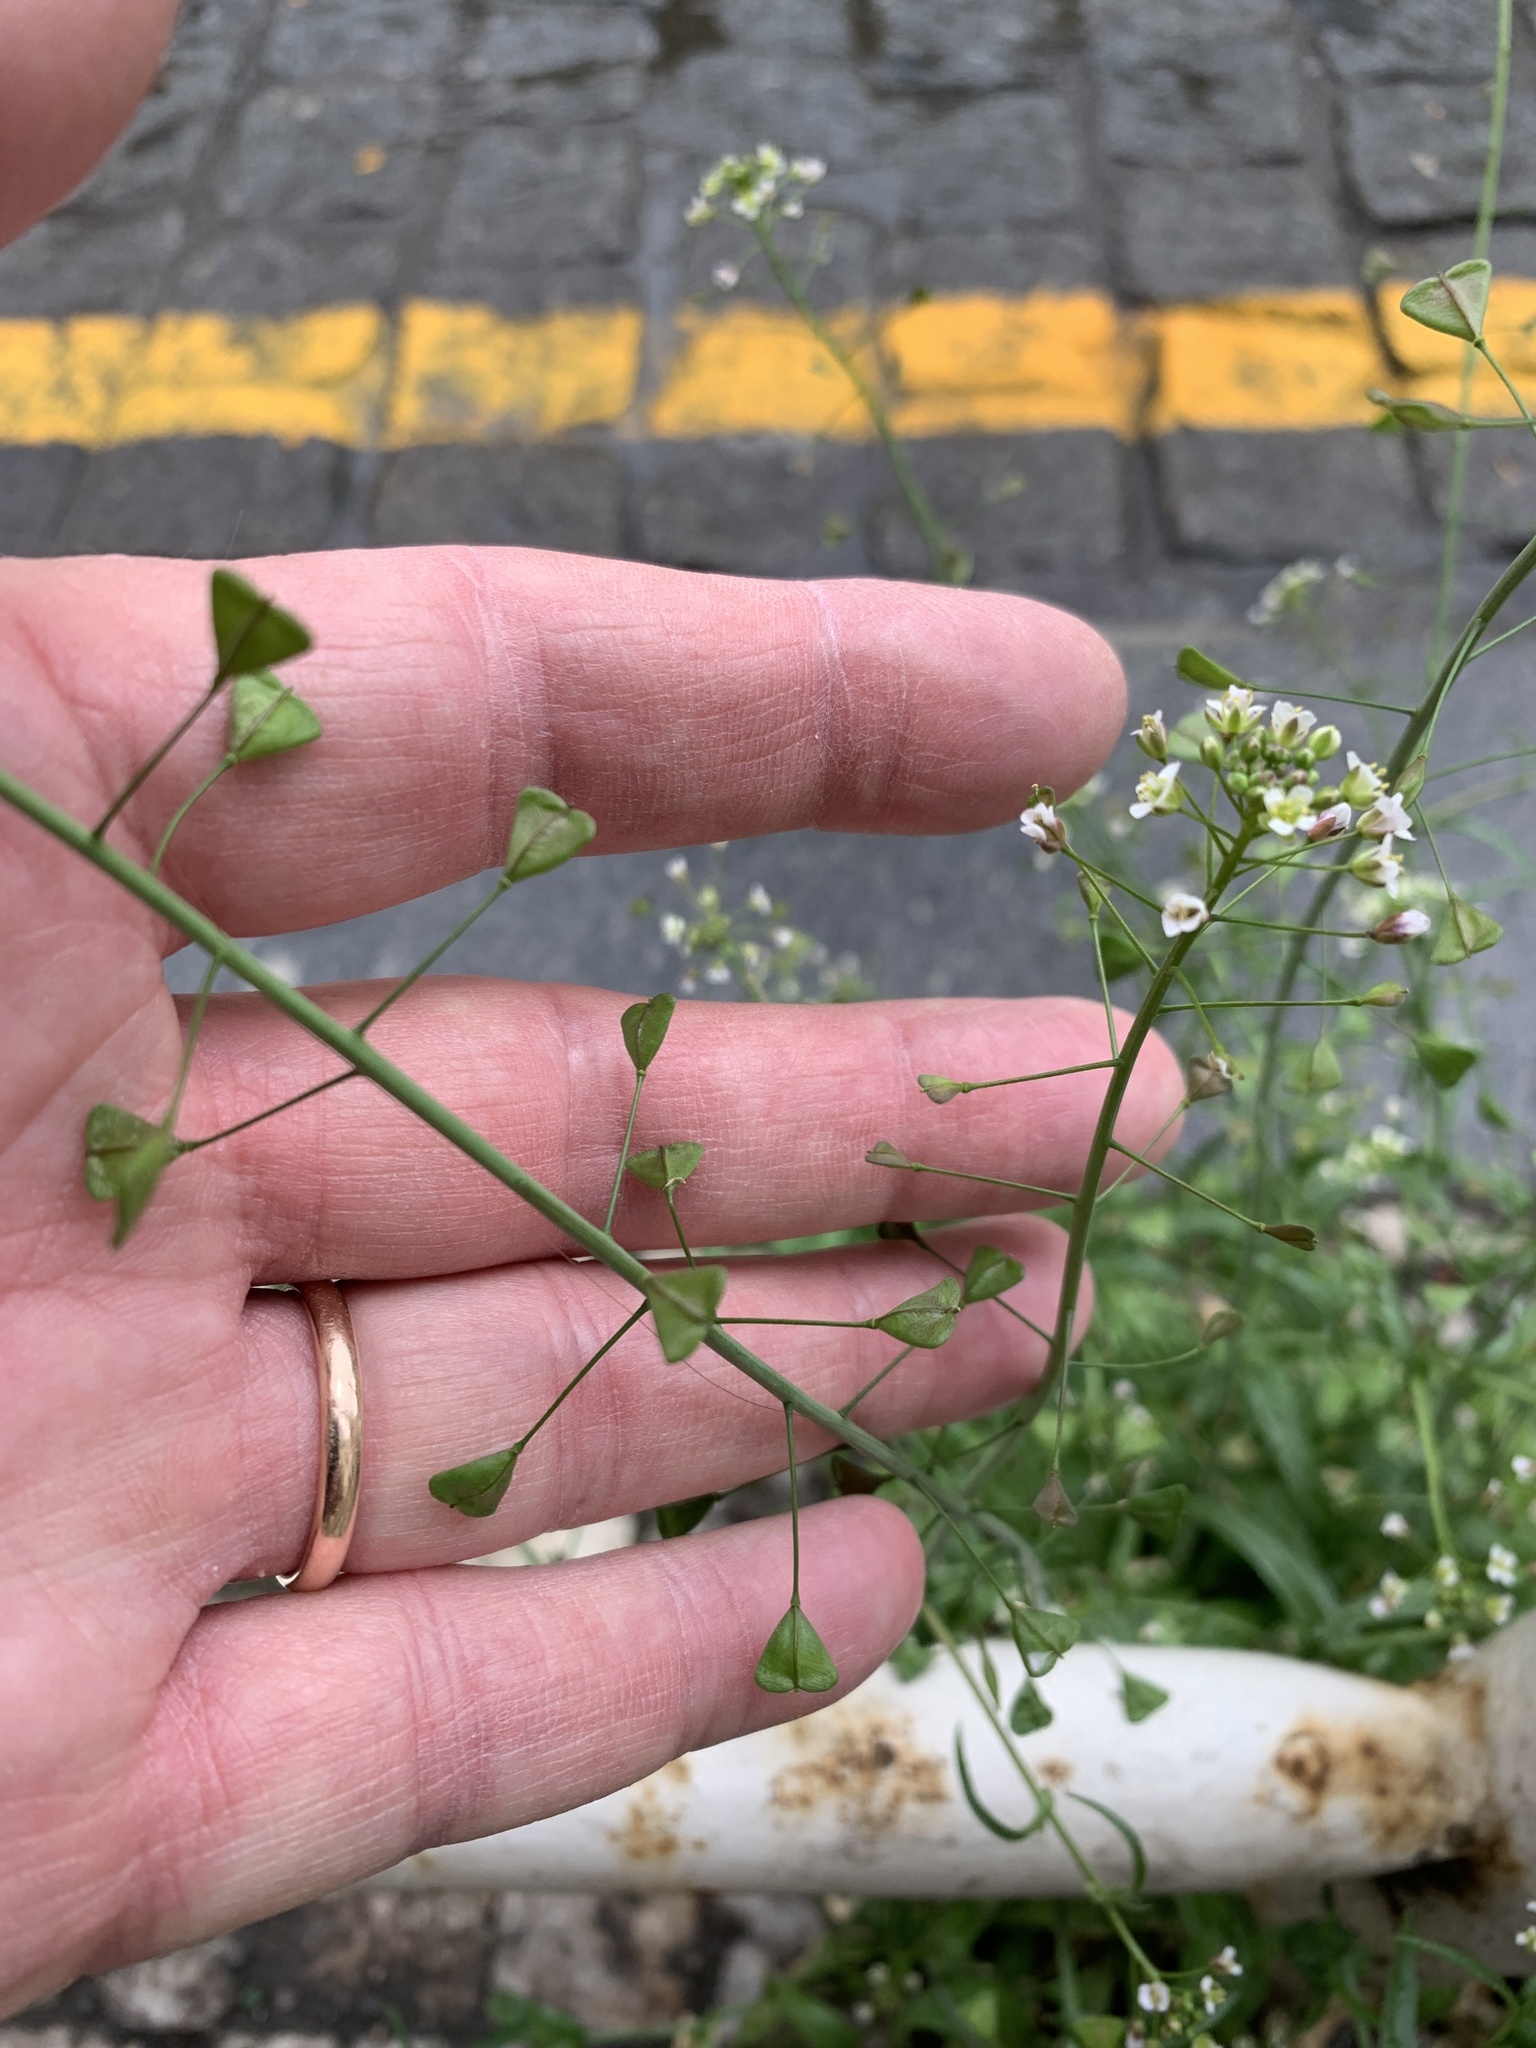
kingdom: Plantae
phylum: Tracheophyta
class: Magnoliopsida
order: Brassicales
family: Brassicaceae
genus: Capsella
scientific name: Capsella bursa-pastoris
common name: Shepherd's purse
